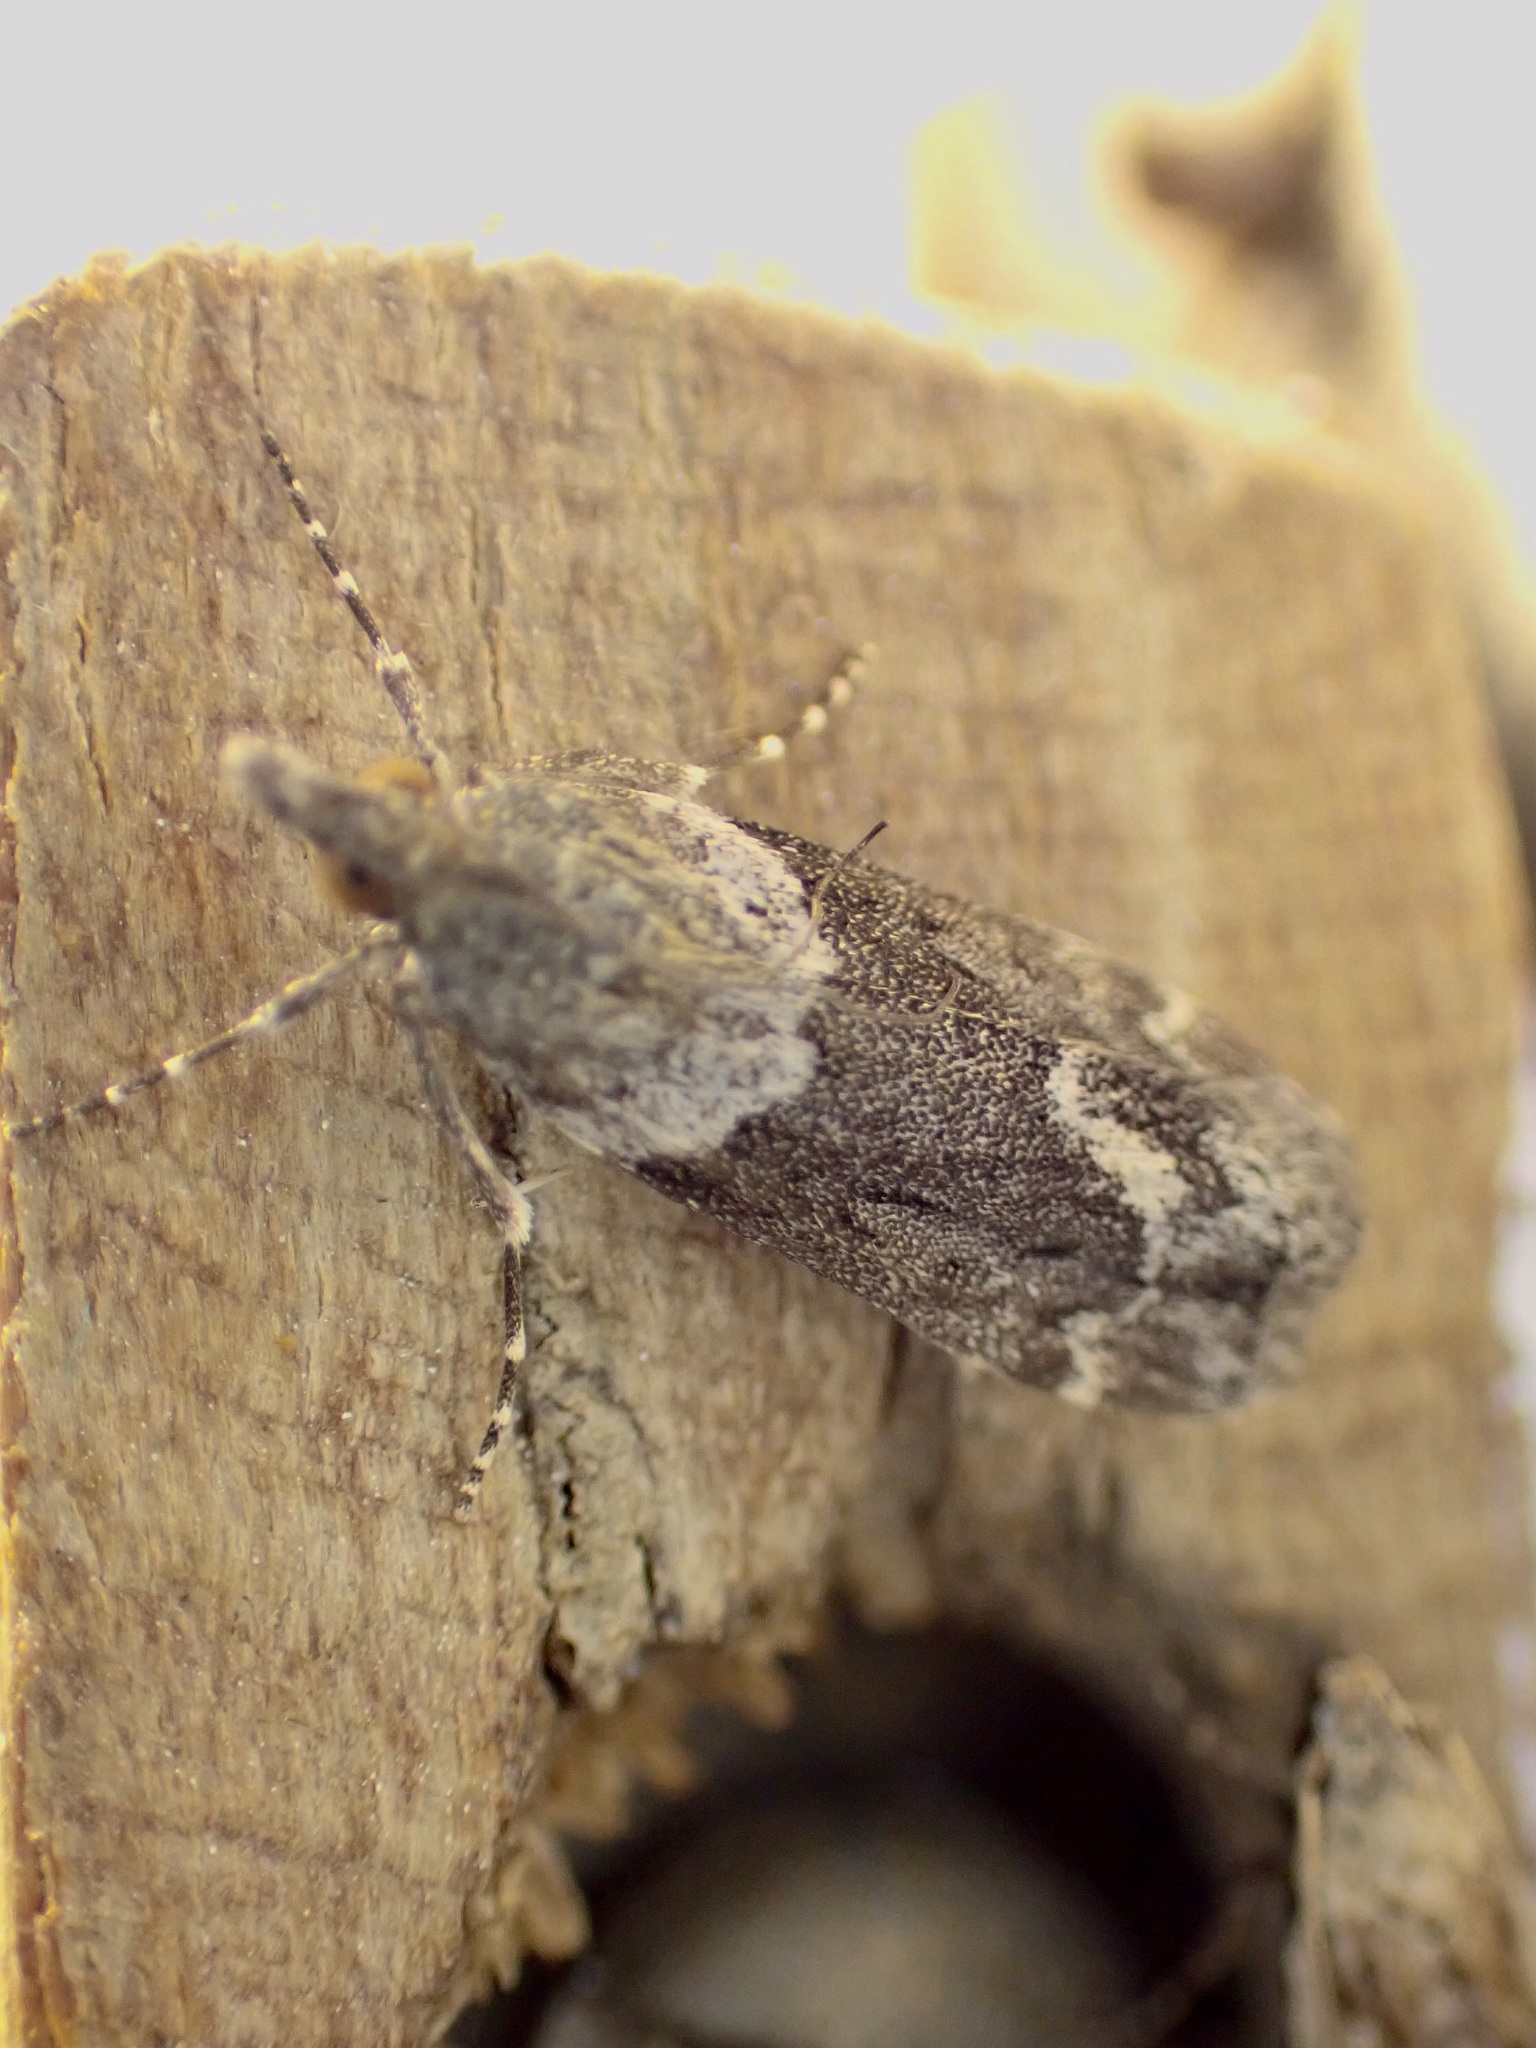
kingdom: Animalia
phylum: Arthropoda
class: Insecta
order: Lepidoptera
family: Crambidae
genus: Eudonia
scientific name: Eudonia submarginalis
